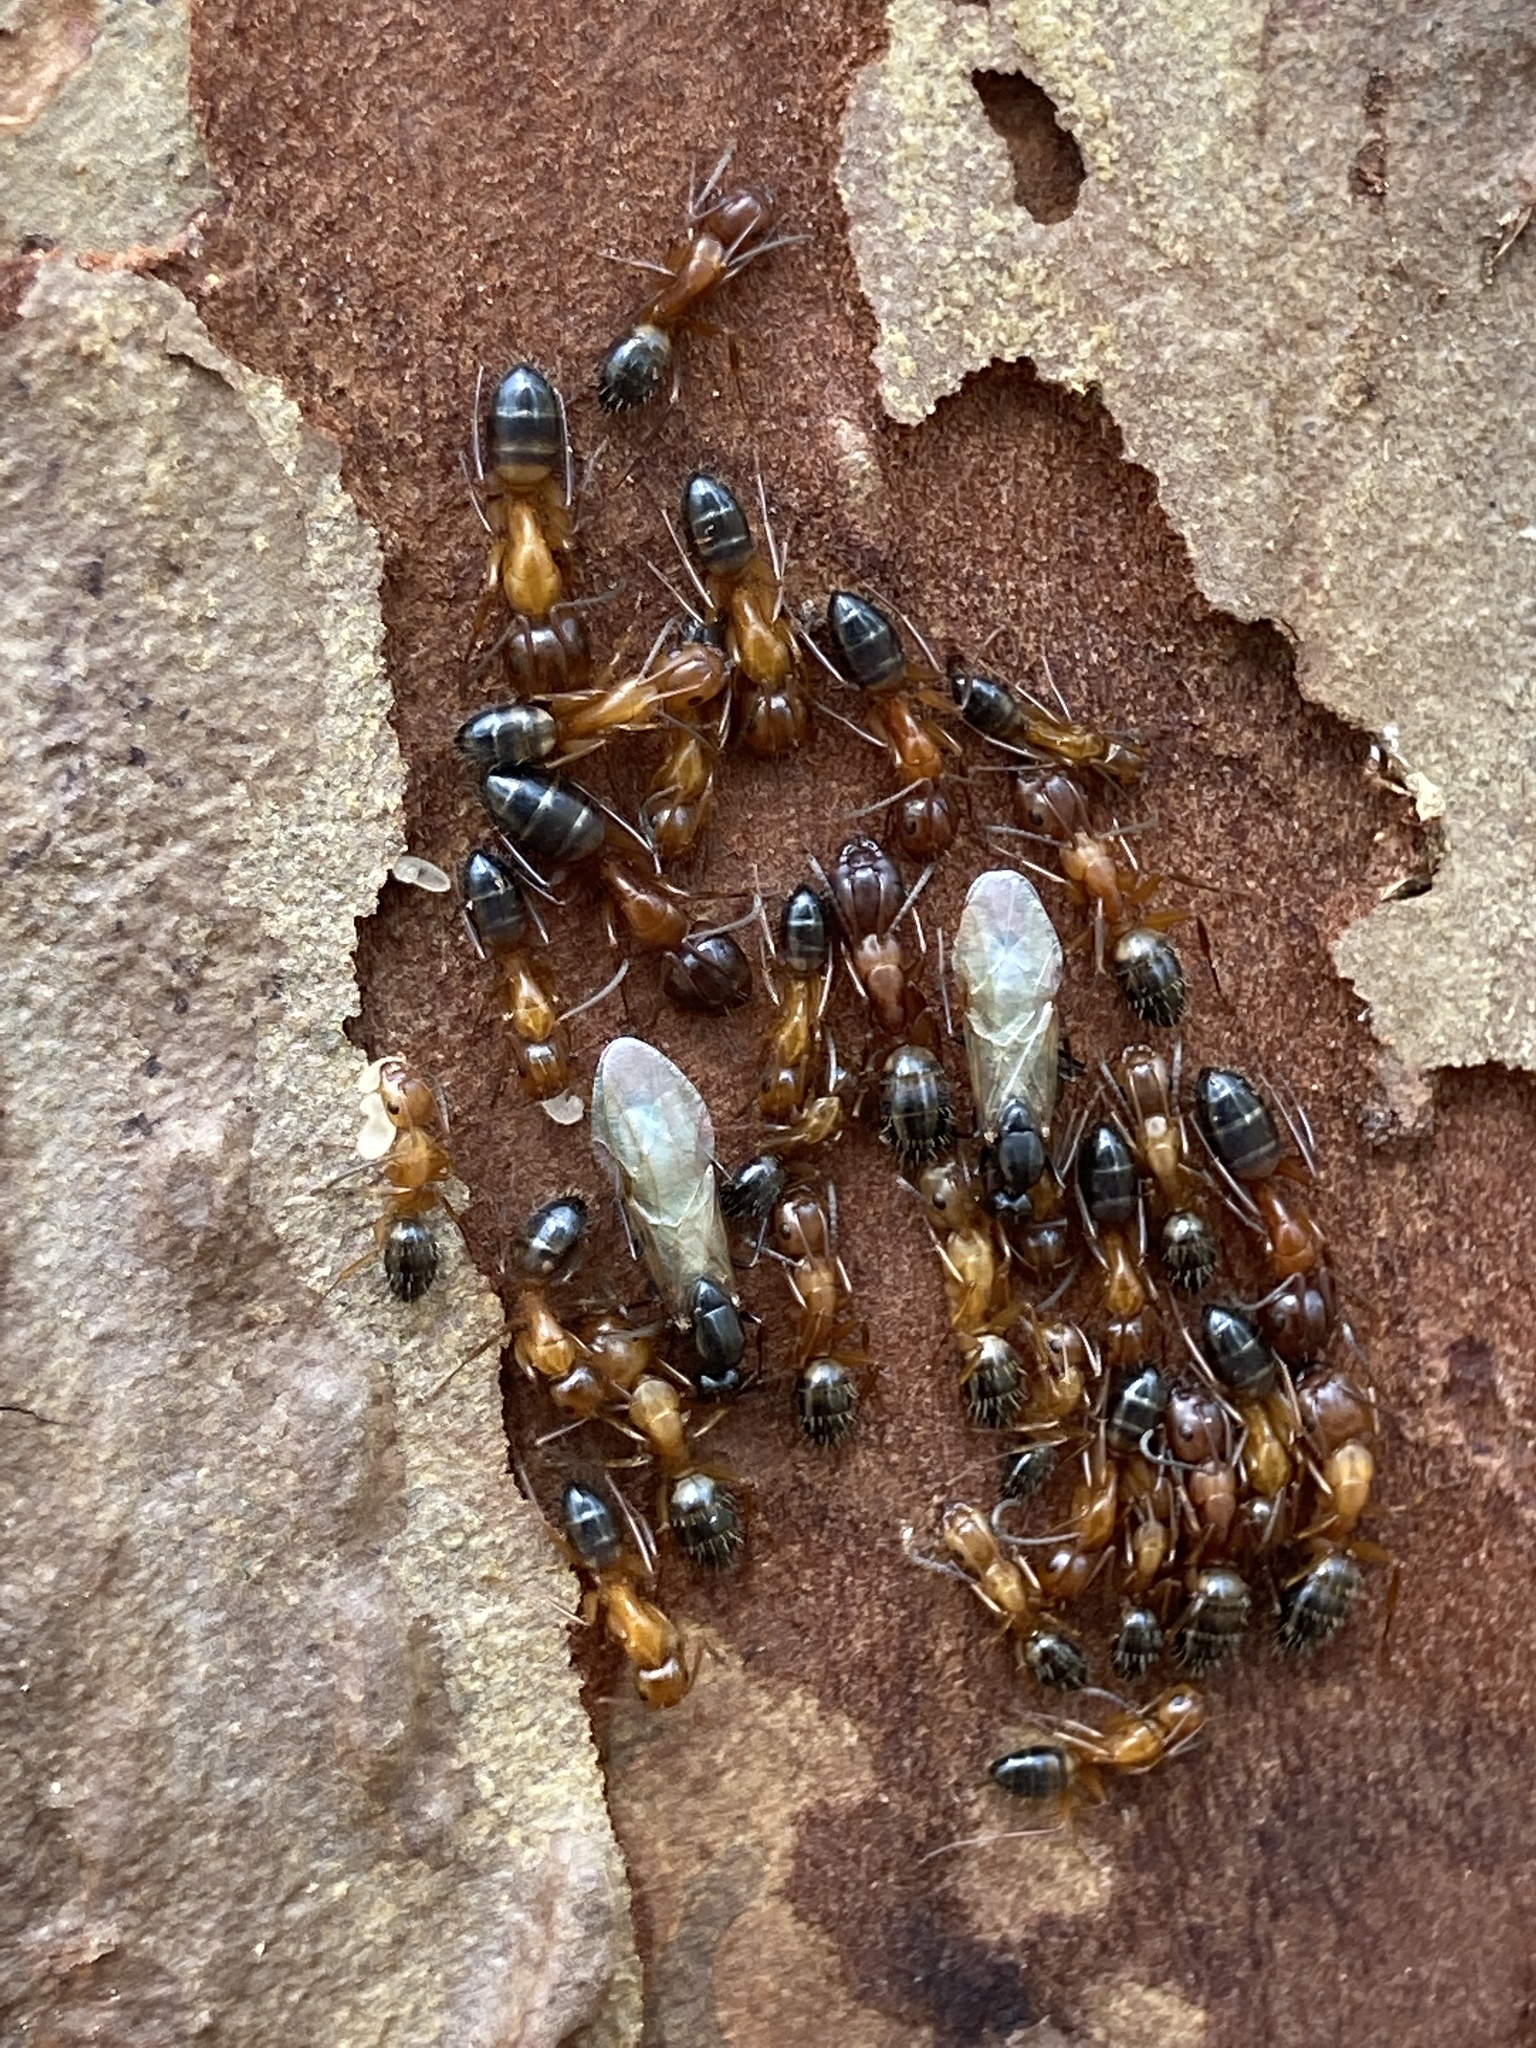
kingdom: Animalia
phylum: Arthropoda
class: Insecta
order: Hymenoptera
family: Formicidae
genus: Camponotus
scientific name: Camponotus snellingi
